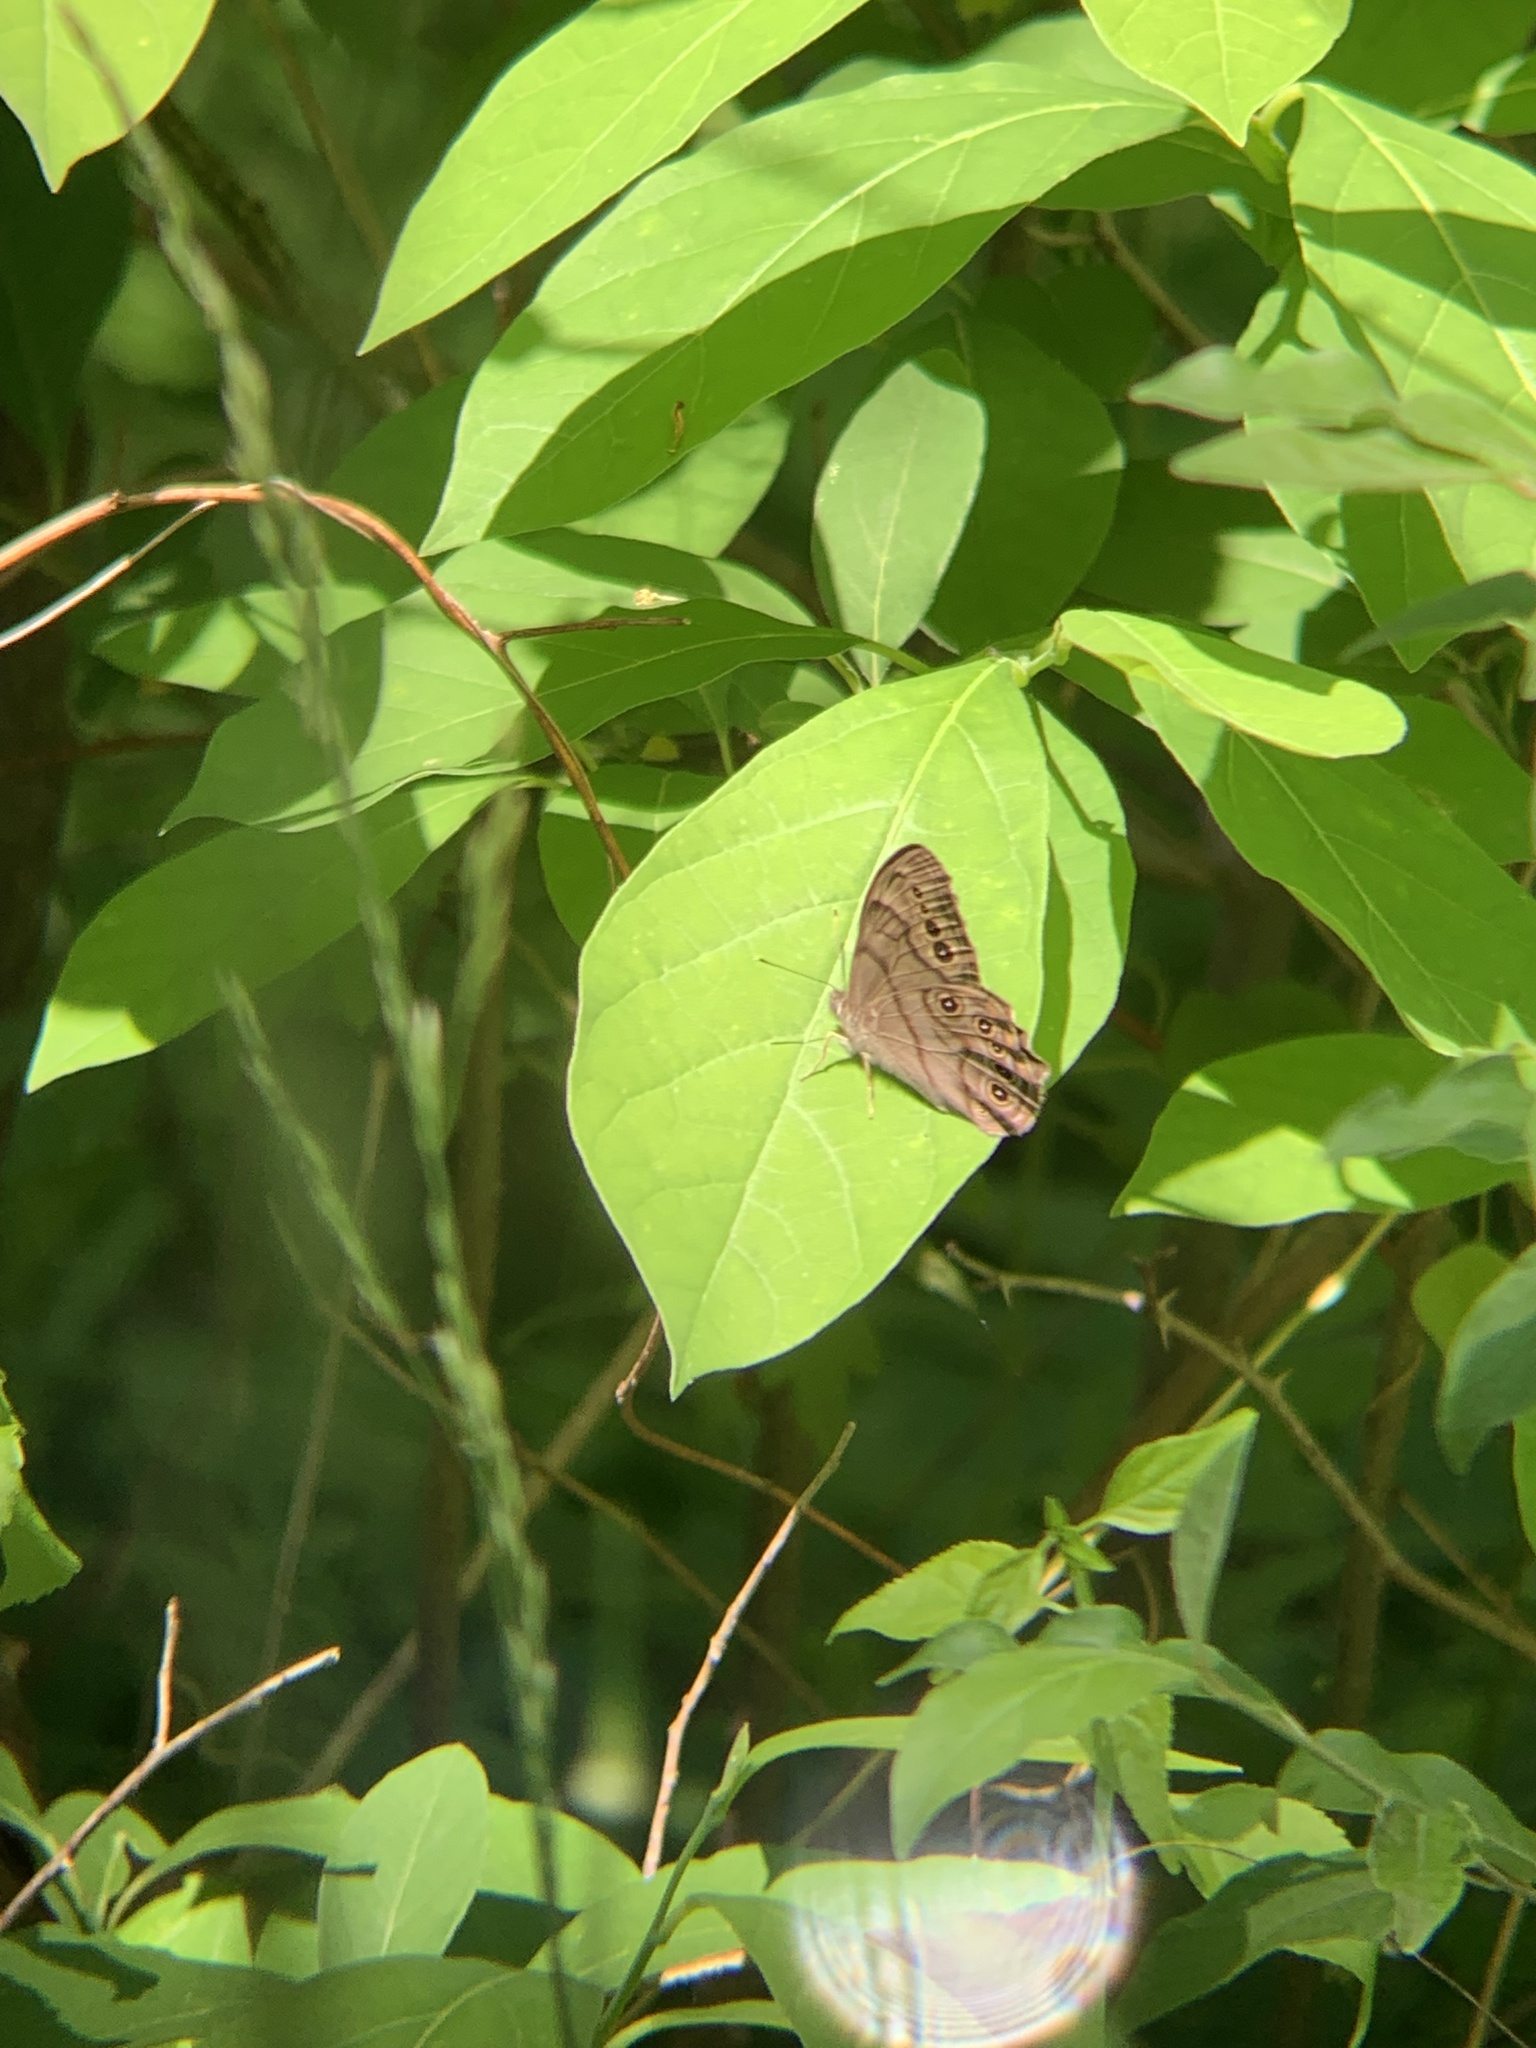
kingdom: Animalia
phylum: Arthropoda
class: Insecta
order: Lepidoptera
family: Nymphalidae
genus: Lethe
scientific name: Lethe anthedon
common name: Northern pearly-eye
